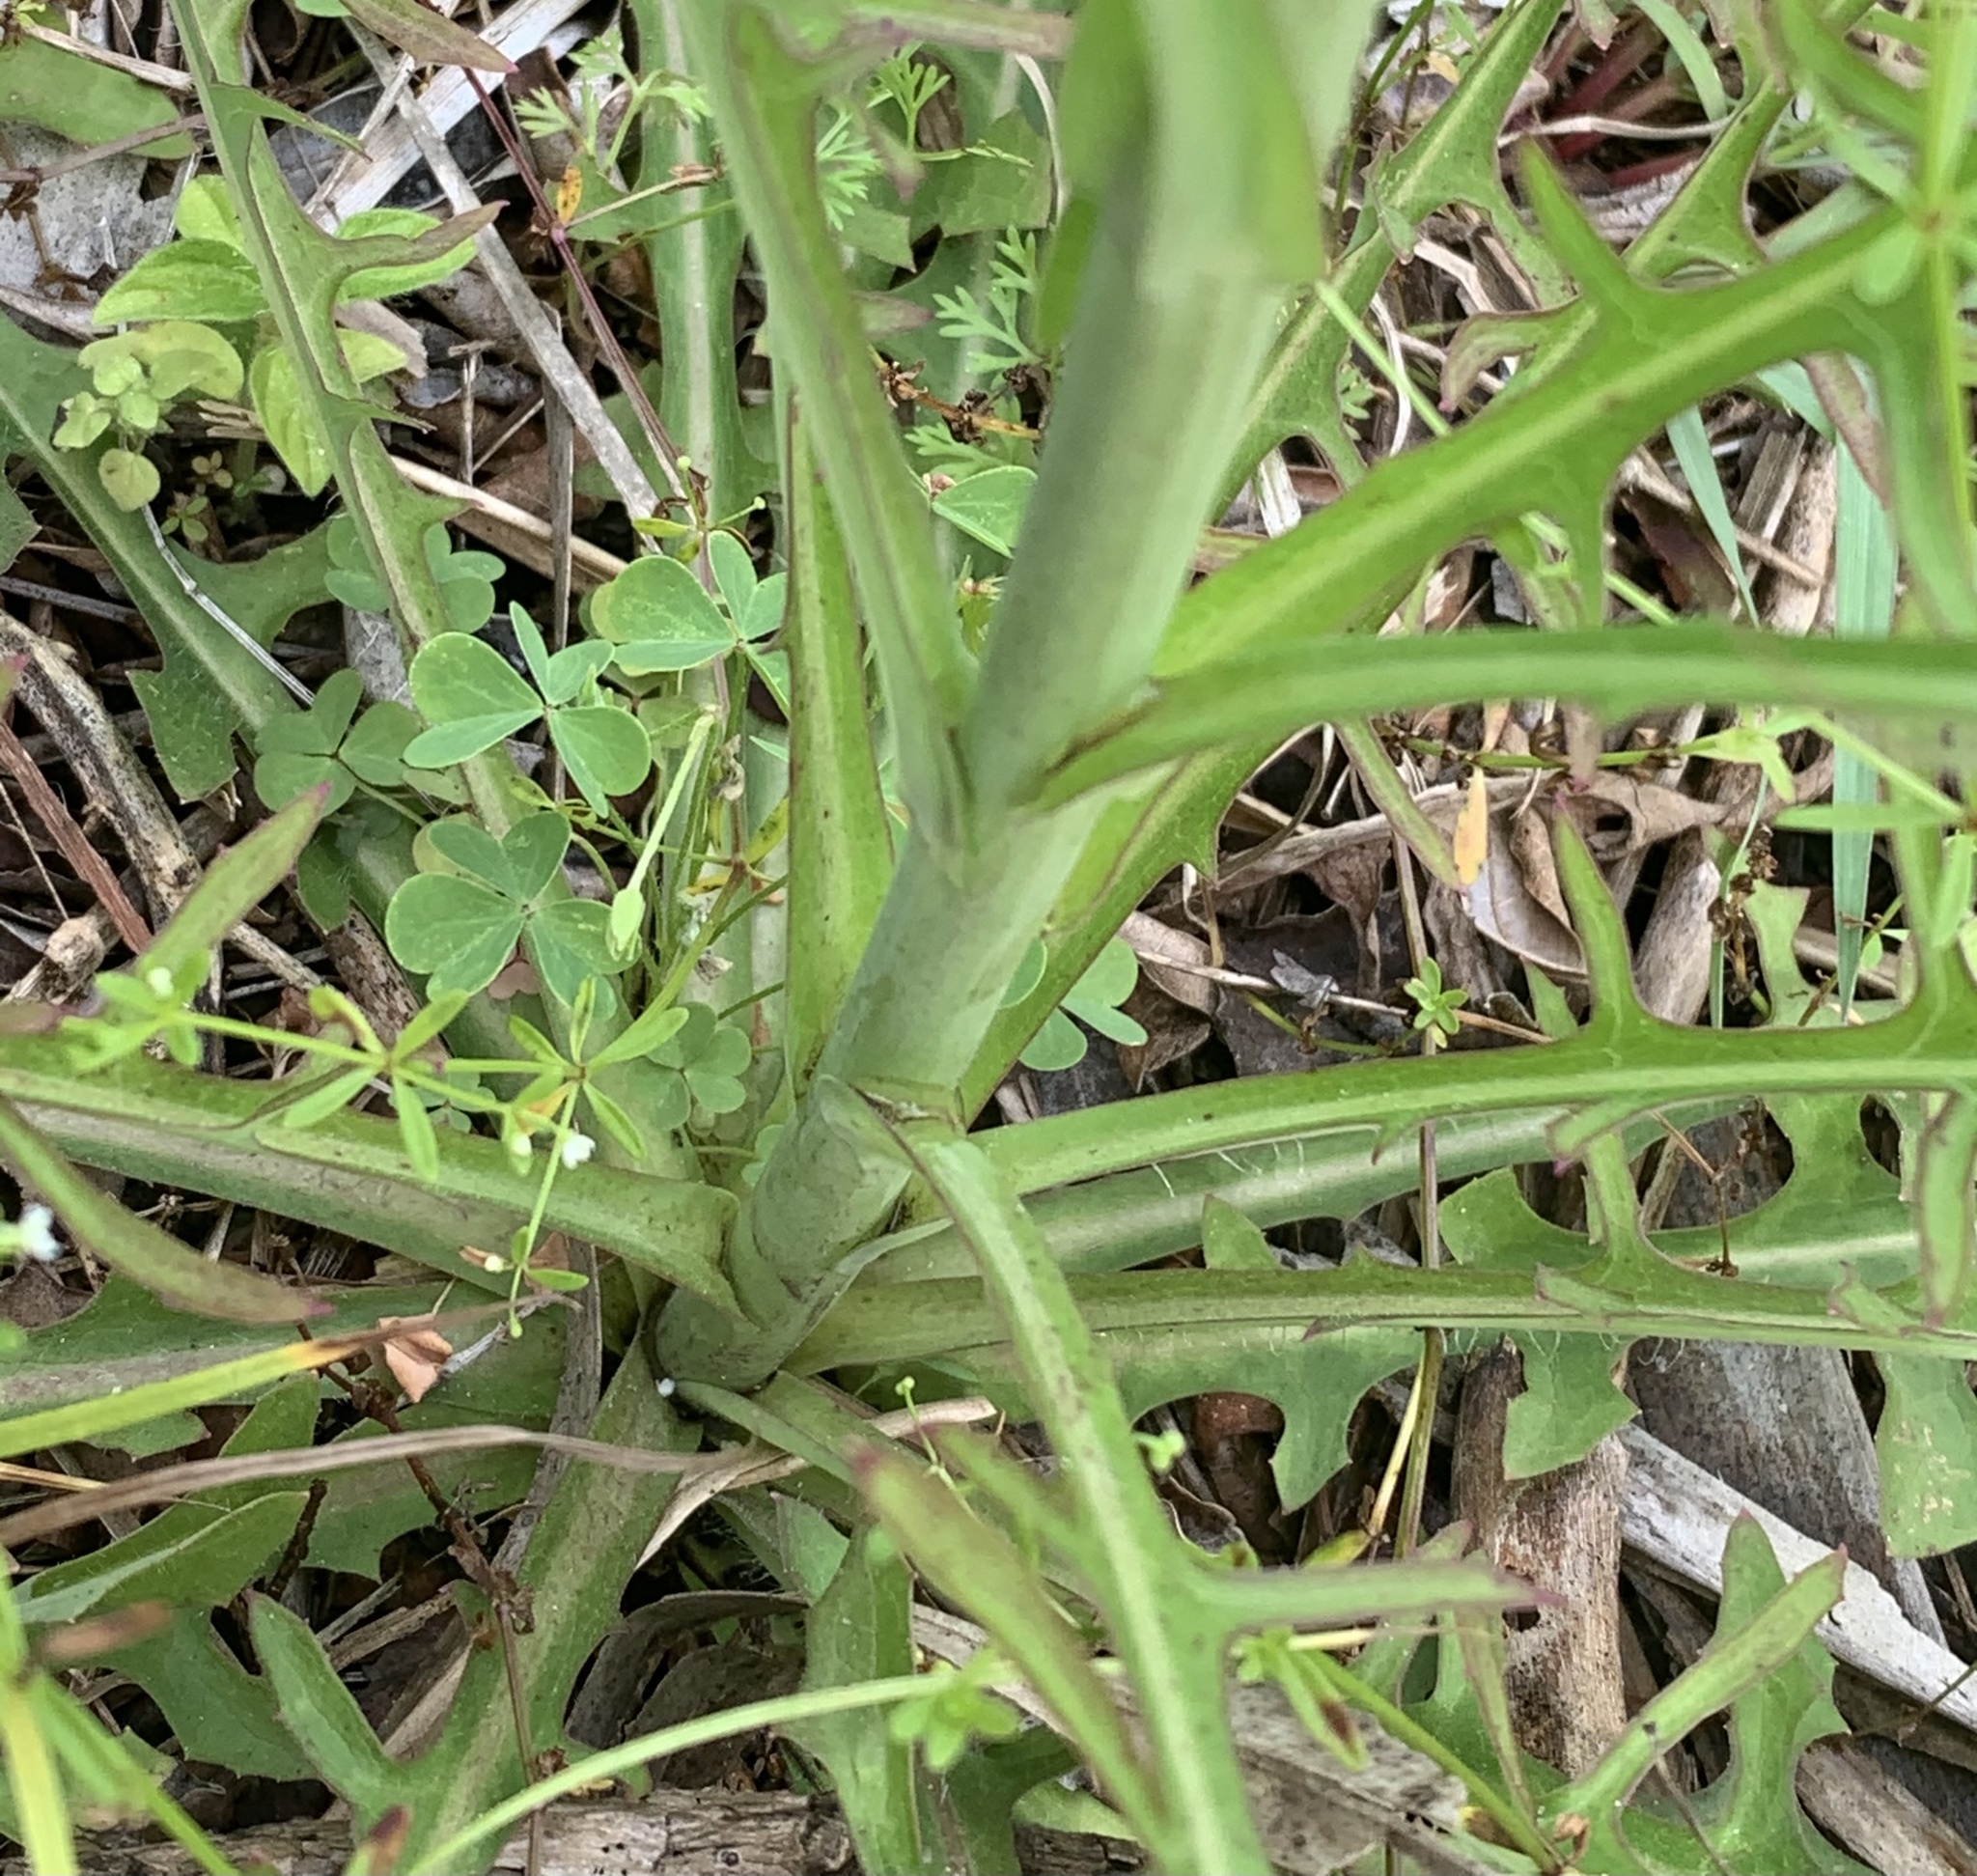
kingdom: Plantae
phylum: Tracheophyta
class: Magnoliopsida
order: Asterales
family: Asteraceae
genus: Lactuca
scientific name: Lactuca graminifolia
